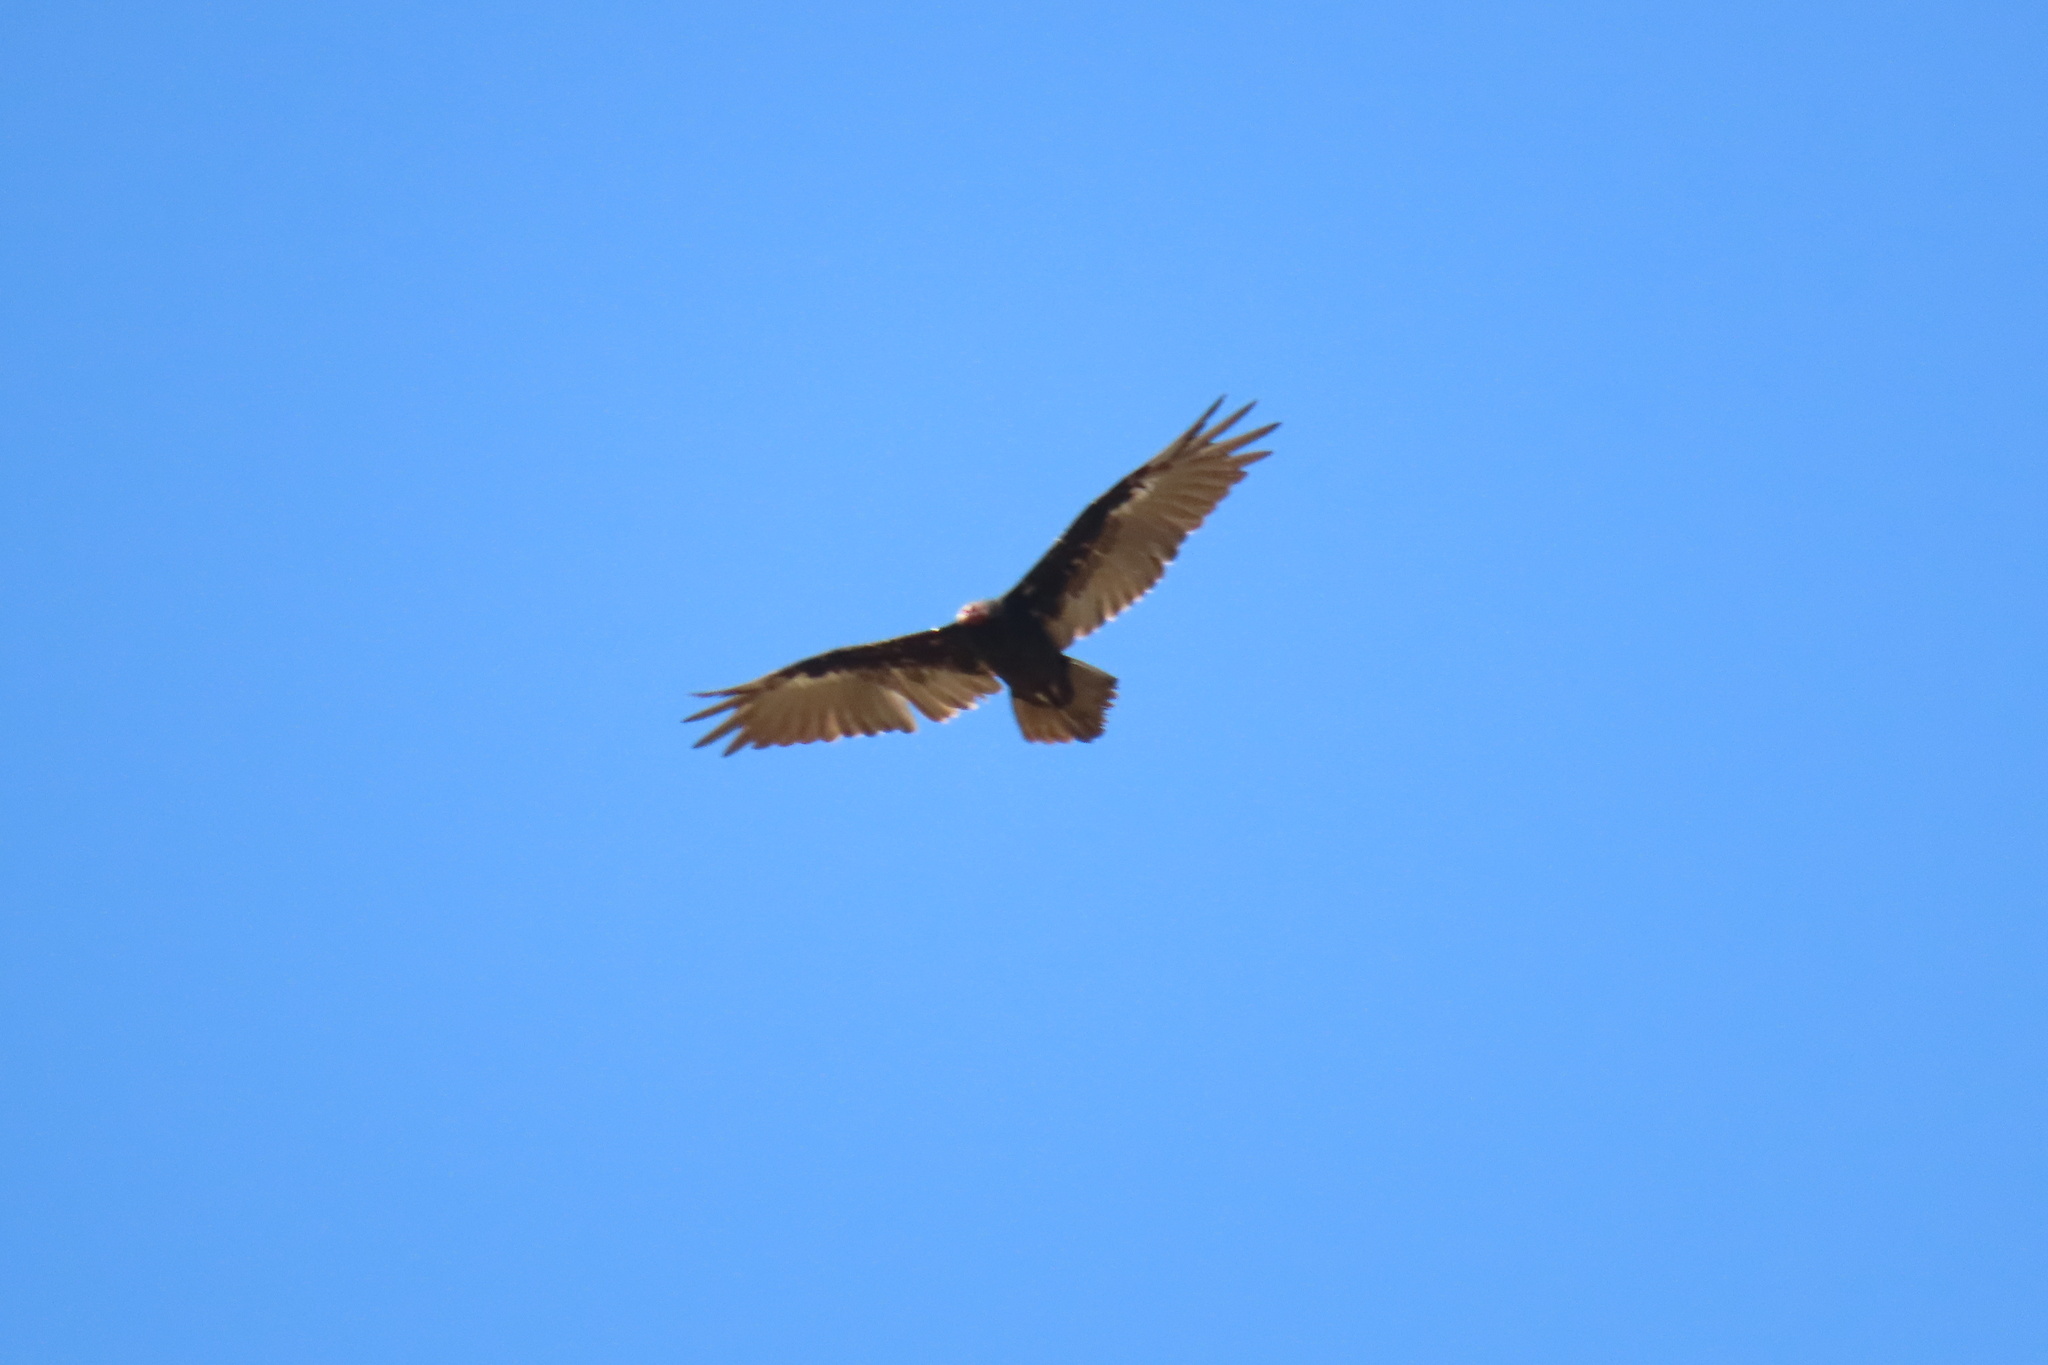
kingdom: Animalia
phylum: Chordata
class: Aves
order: Accipitriformes
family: Cathartidae
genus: Cathartes
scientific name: Cathartes aura
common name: Turkey vulture
